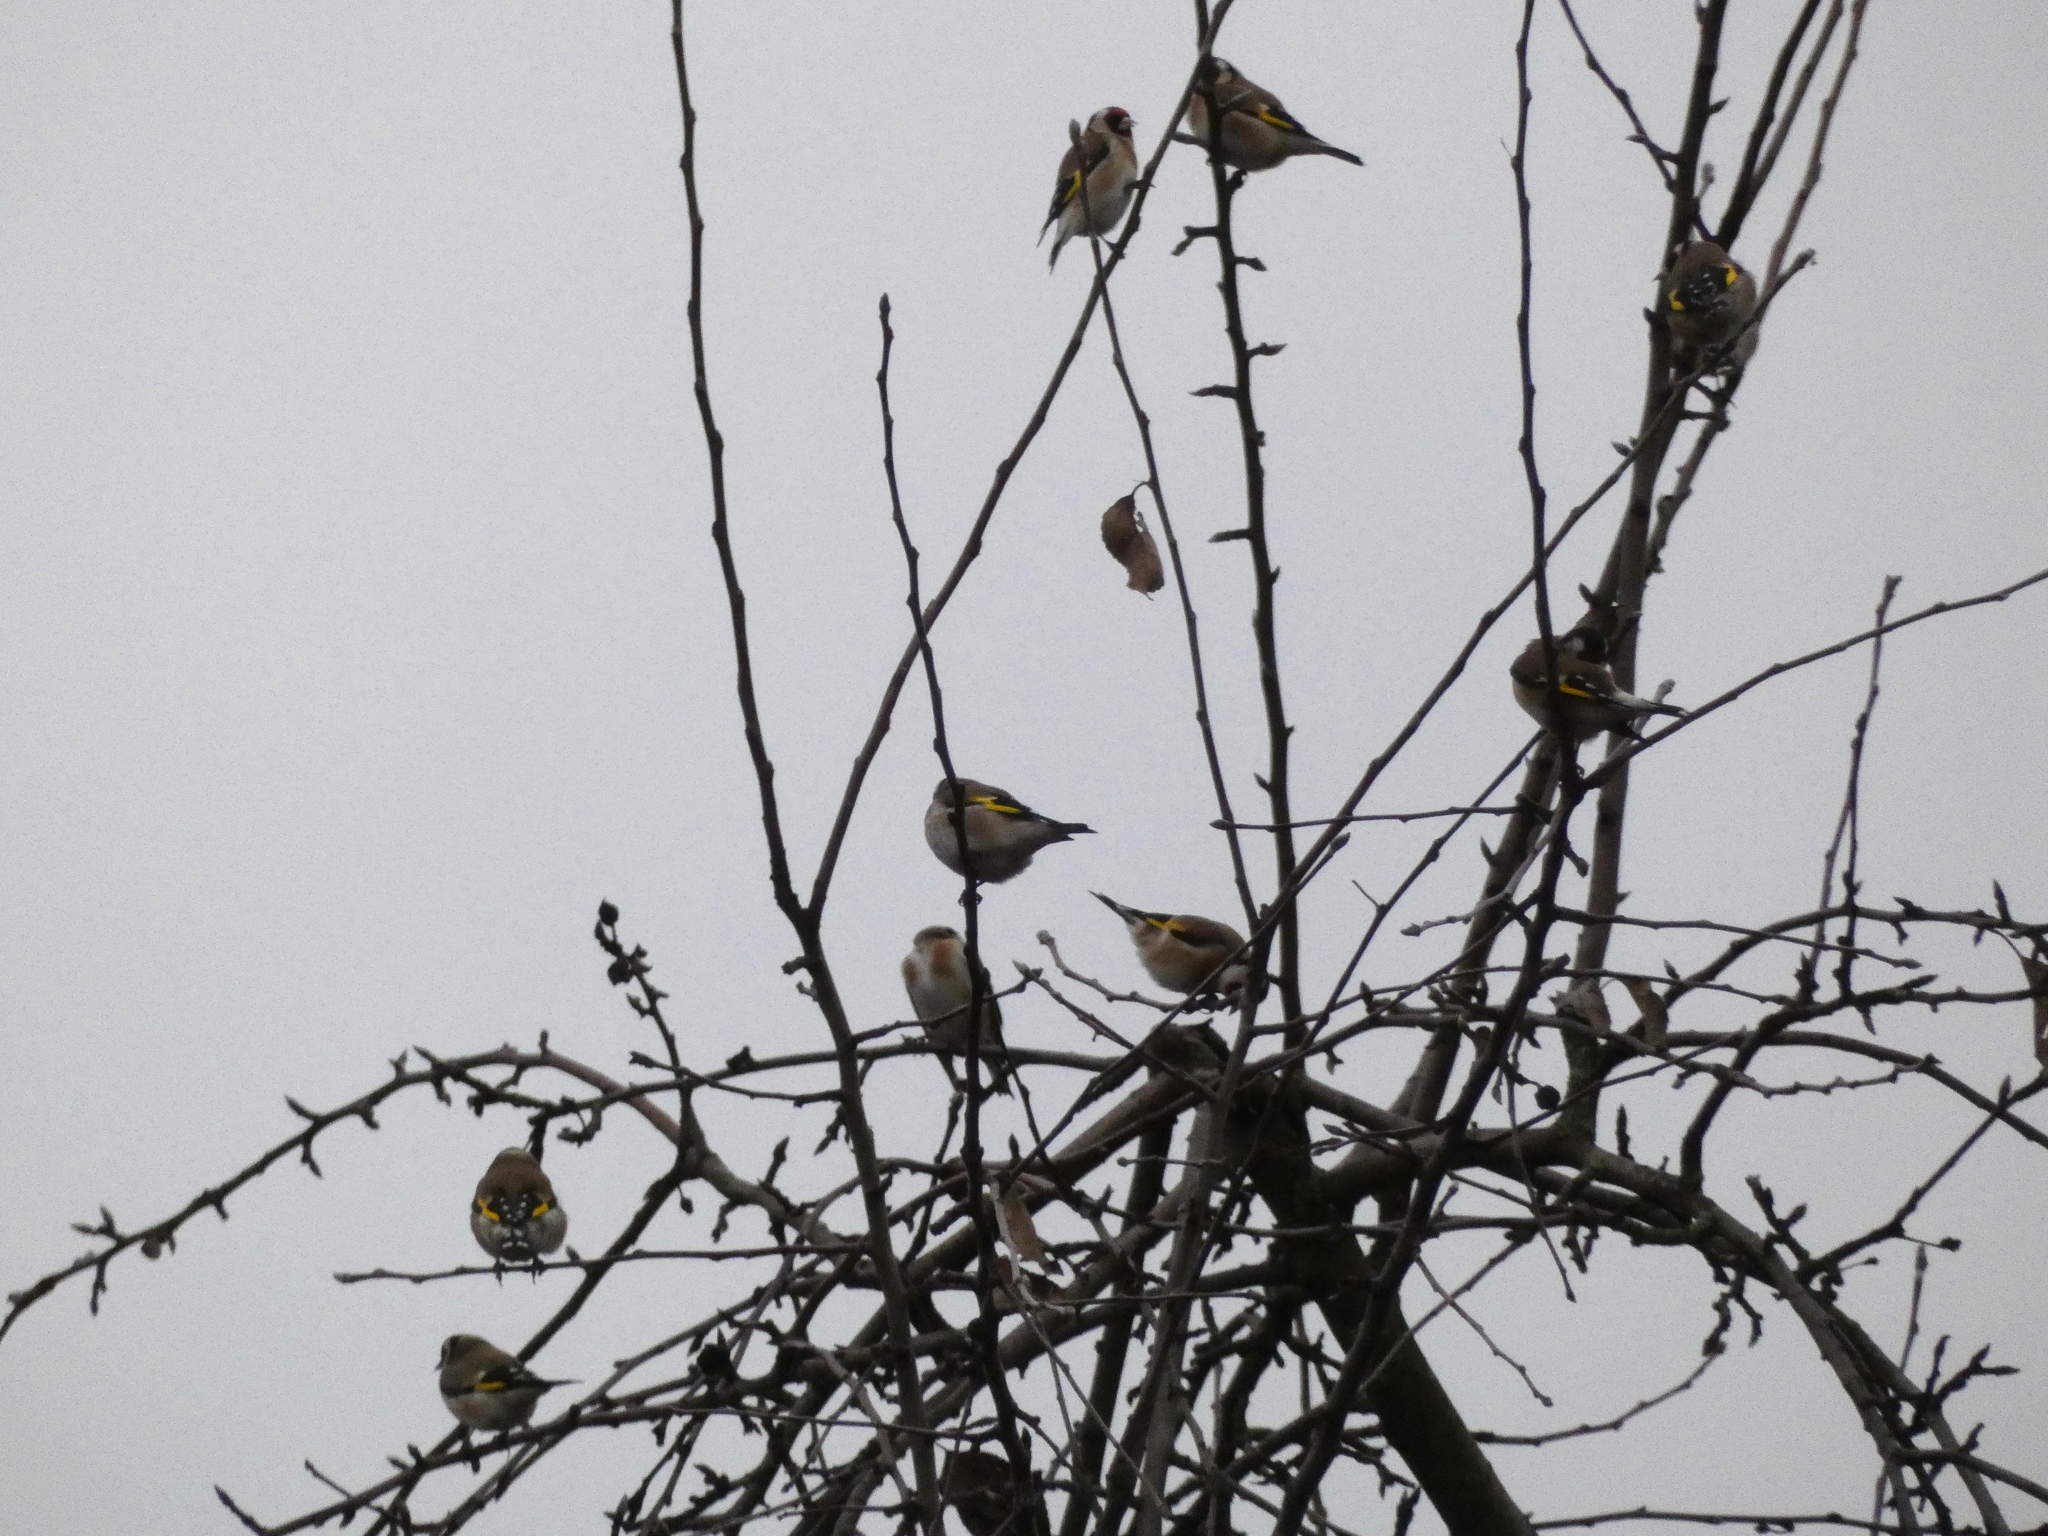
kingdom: Animalia
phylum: Chordata
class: Aves
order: Passeriformes
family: Fringillidae
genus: Carduelis
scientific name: Carduelis carduelis
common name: European goldfinch
